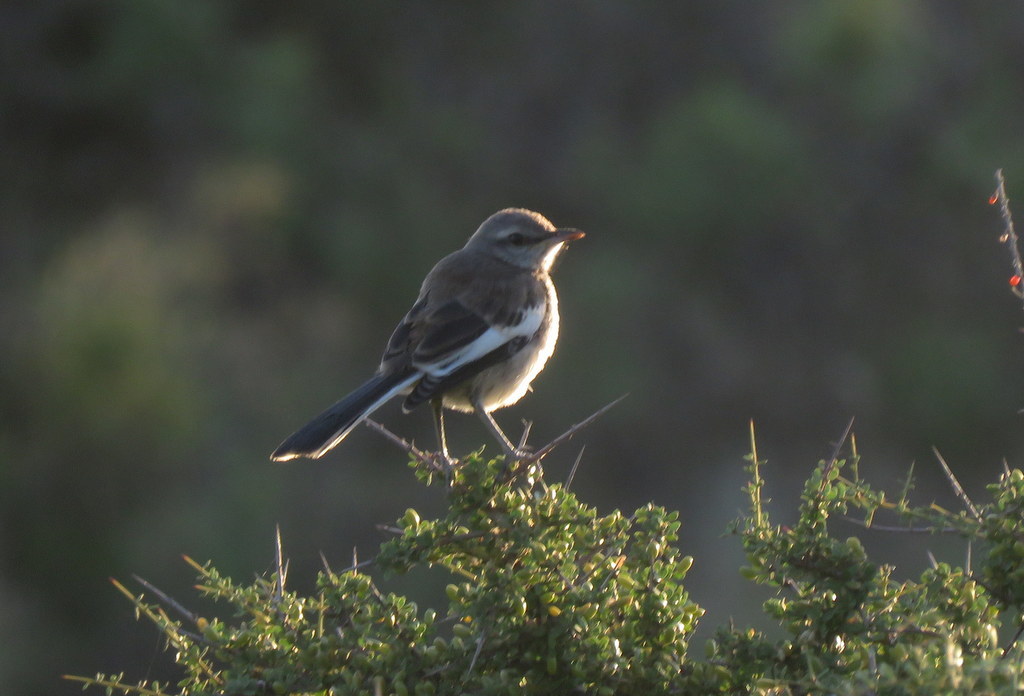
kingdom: Animalia
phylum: Chordata
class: Aves
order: Passeriformes
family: Mimidae
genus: Mimus
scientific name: Mimus triurus
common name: White-banded mockingbird
